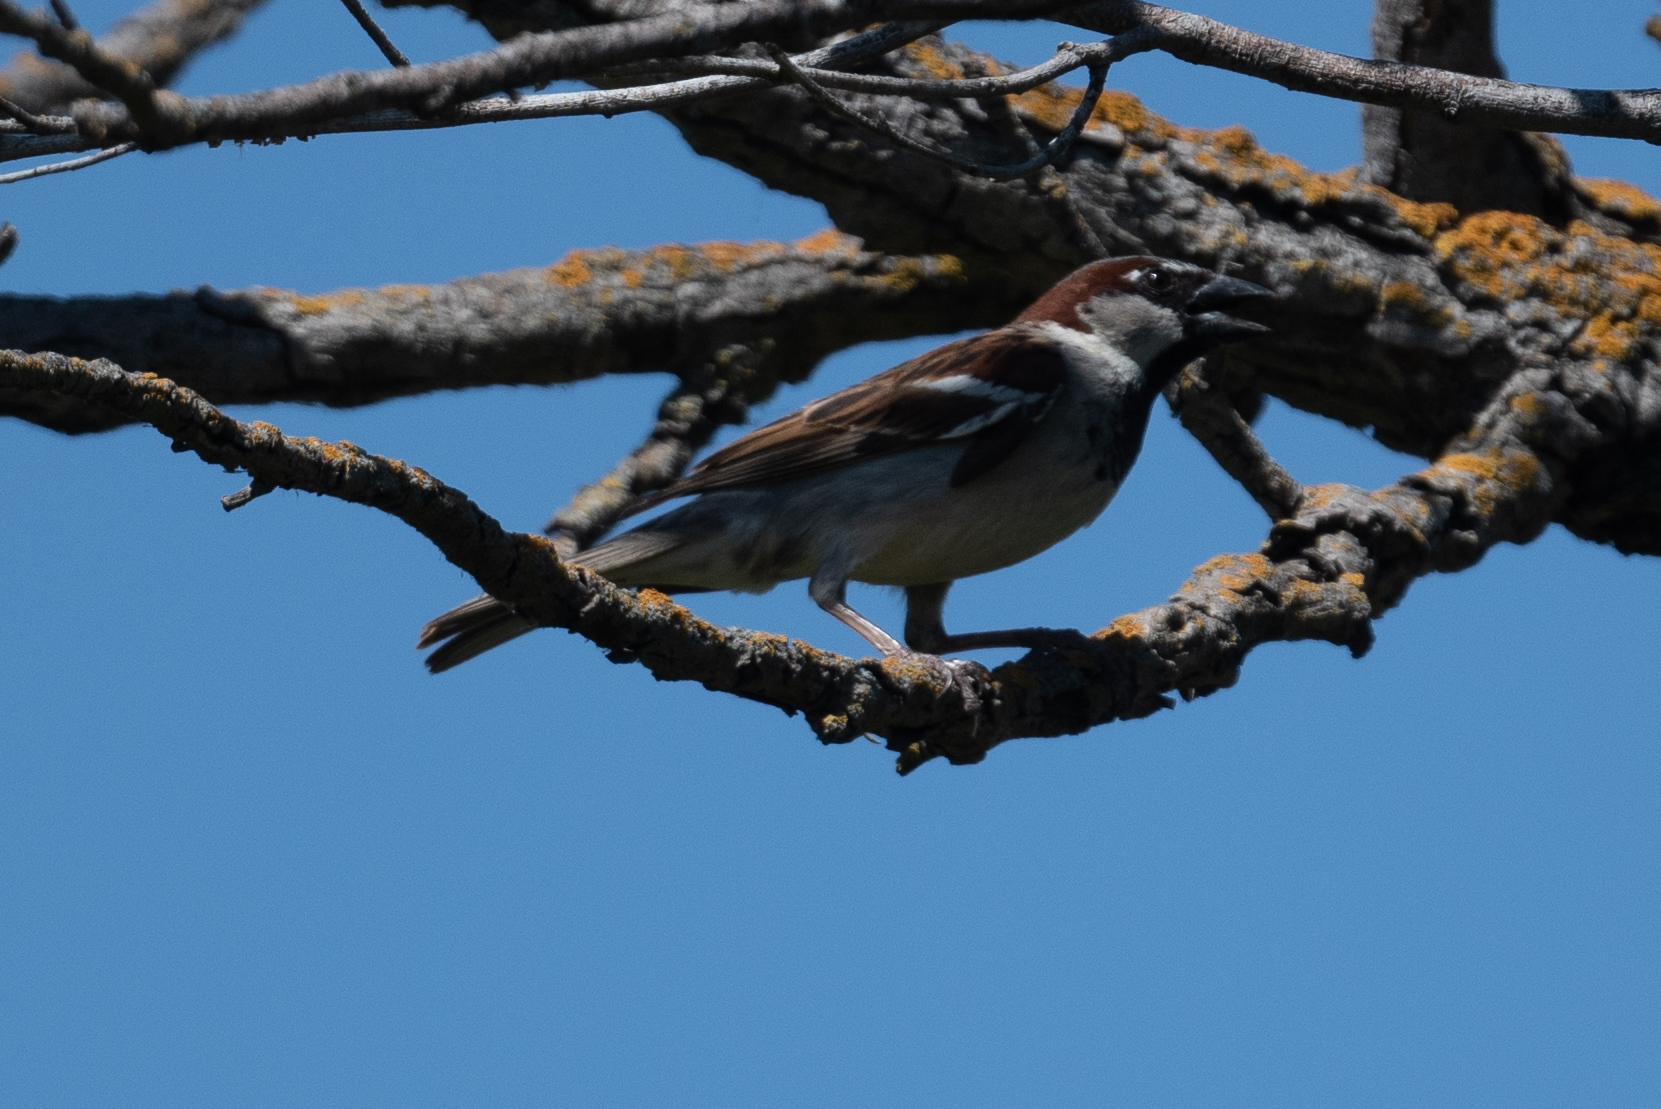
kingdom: Animalia
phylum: Chordata
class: Aves
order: Passeriformes
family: Passeridae
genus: Passer
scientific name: Passer domesticus
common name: House sparrow
